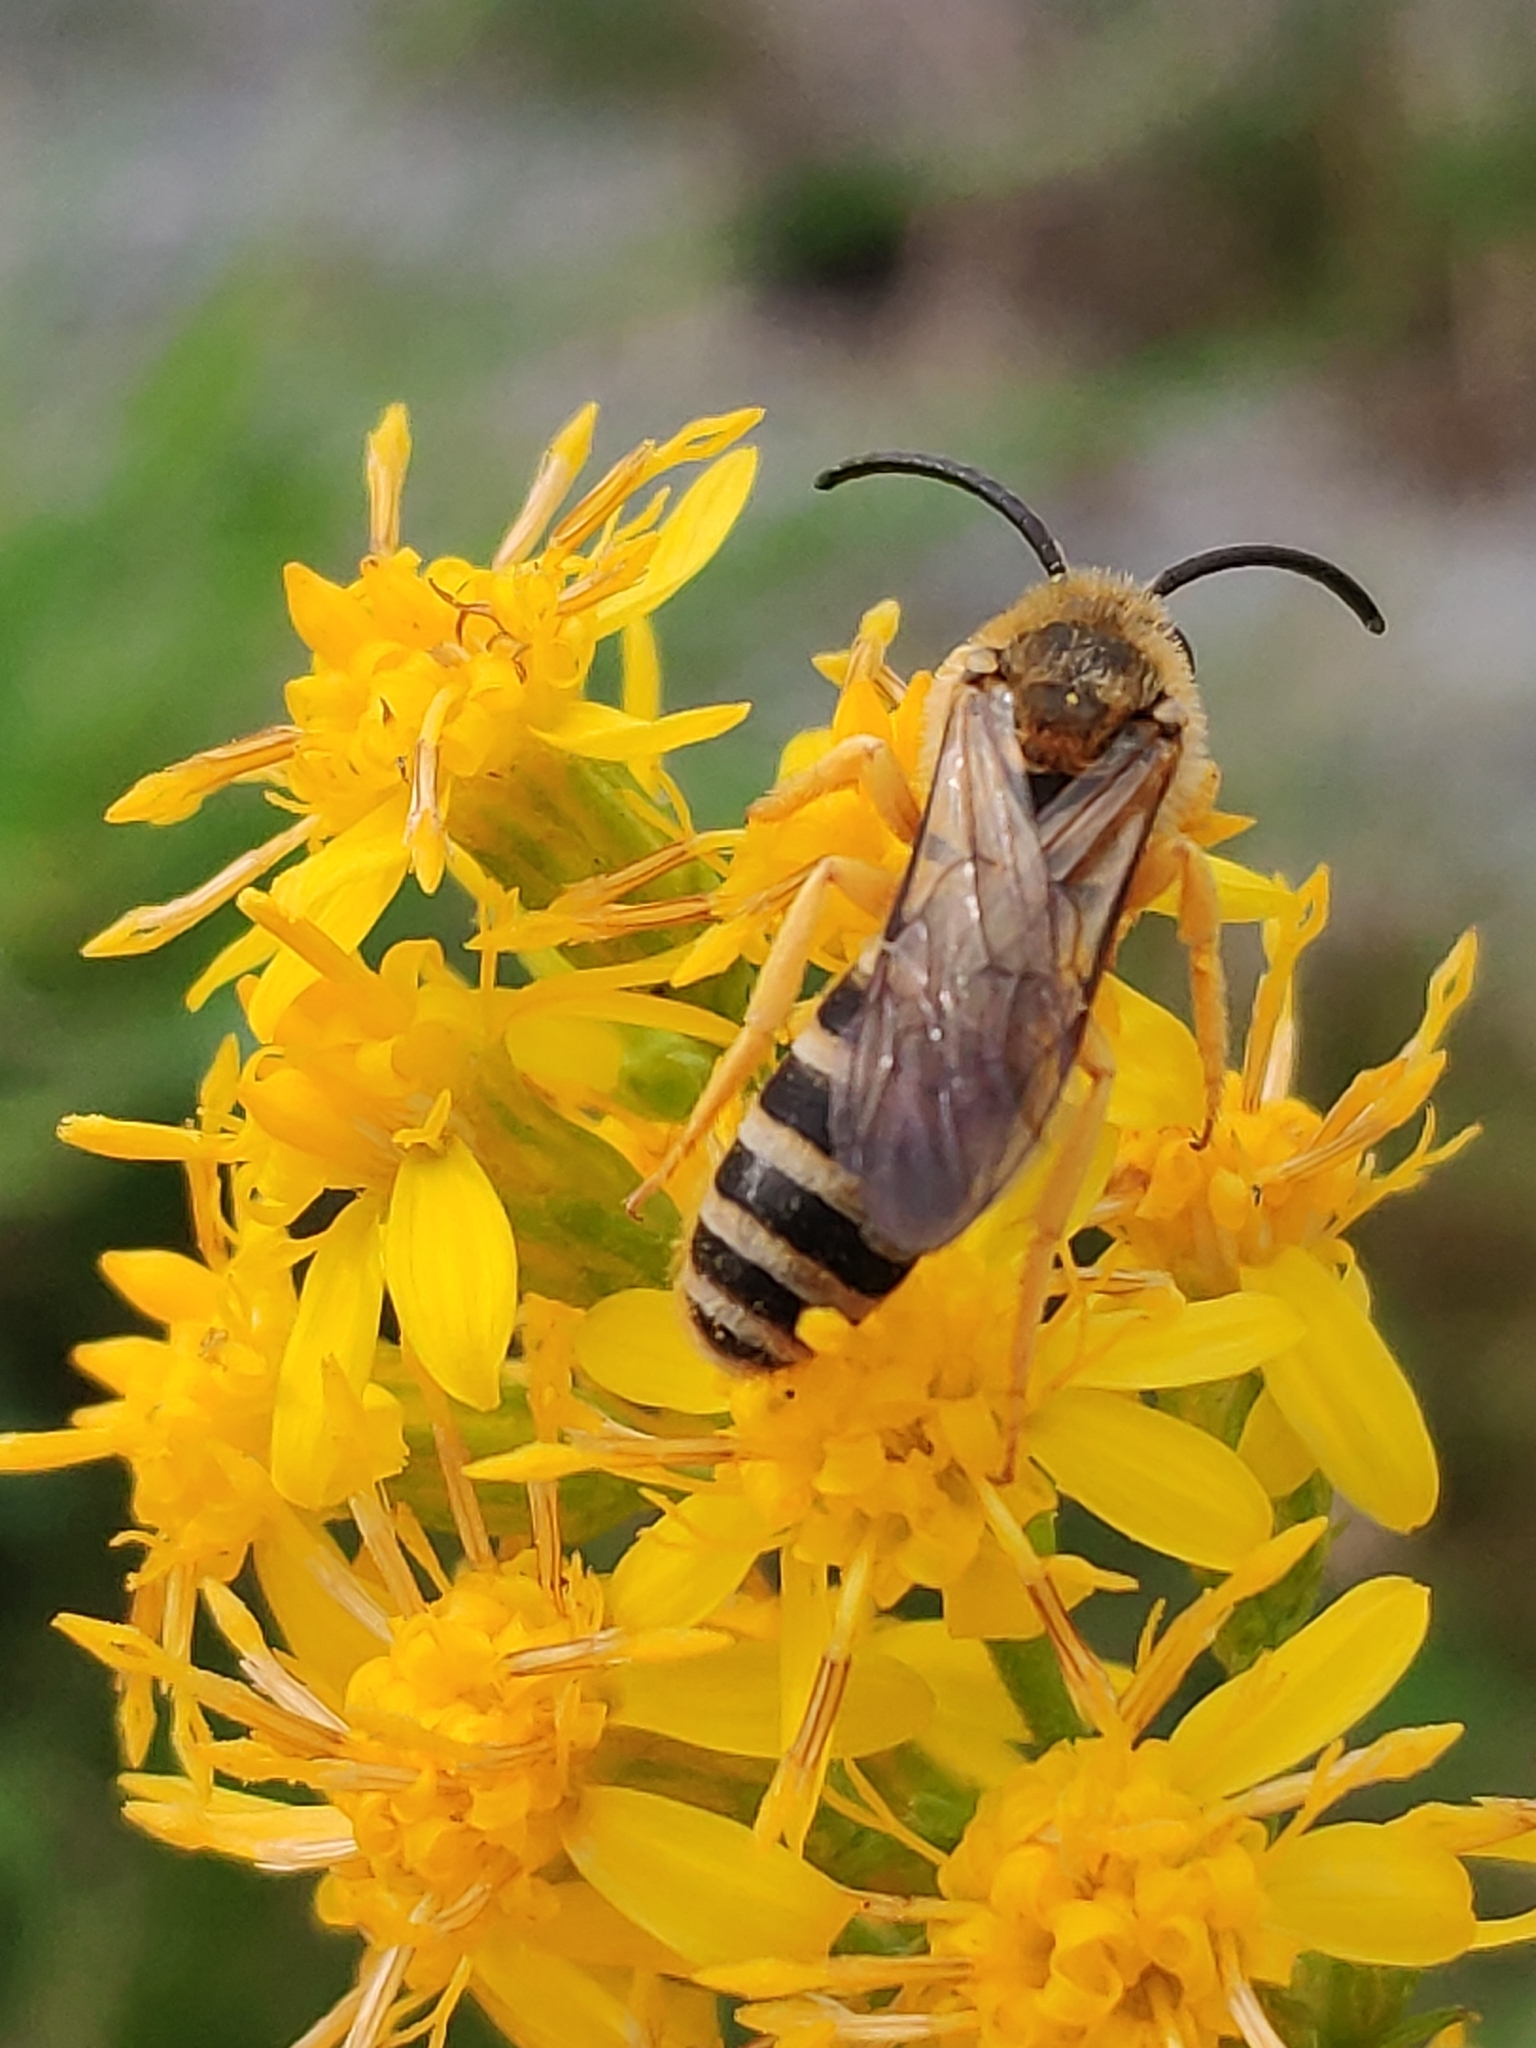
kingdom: Animalia
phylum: Arthropoda
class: Insecta
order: Hymenoptera
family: Halictidae
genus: Halictus
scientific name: Halictus scabiosae
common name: Great banded furrow bee
